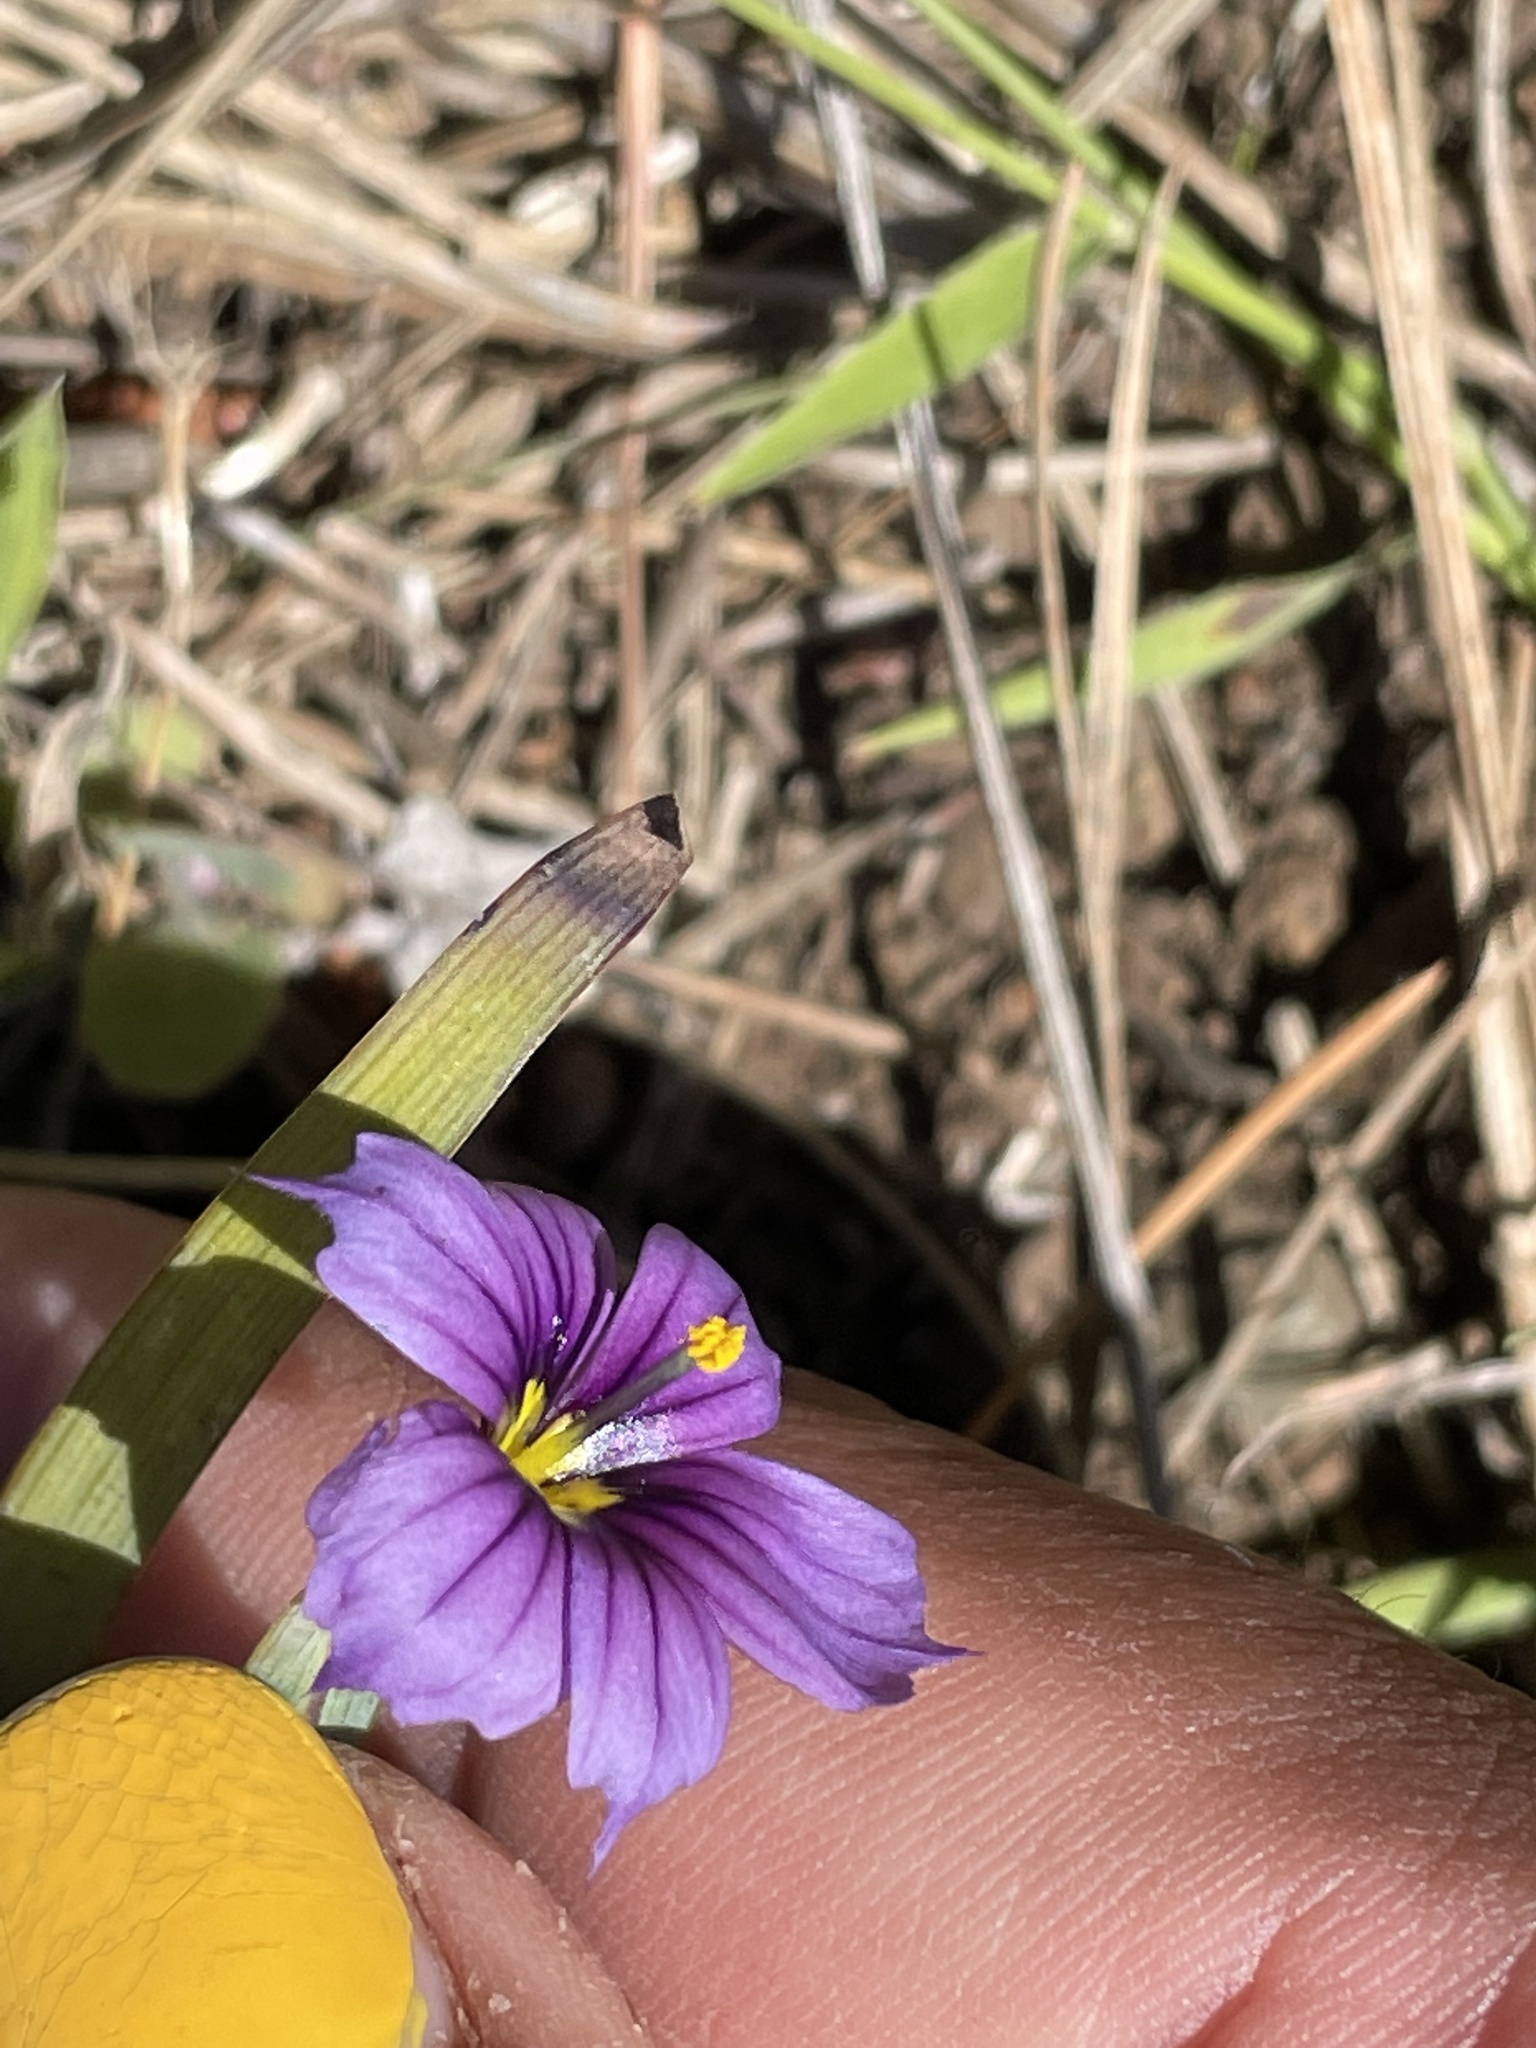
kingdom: Plantae
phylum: Tracheophyta
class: Liliopsida
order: Asparagales
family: Iridaceae
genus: Sisyrinchium
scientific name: Sisyrinchium bellum
